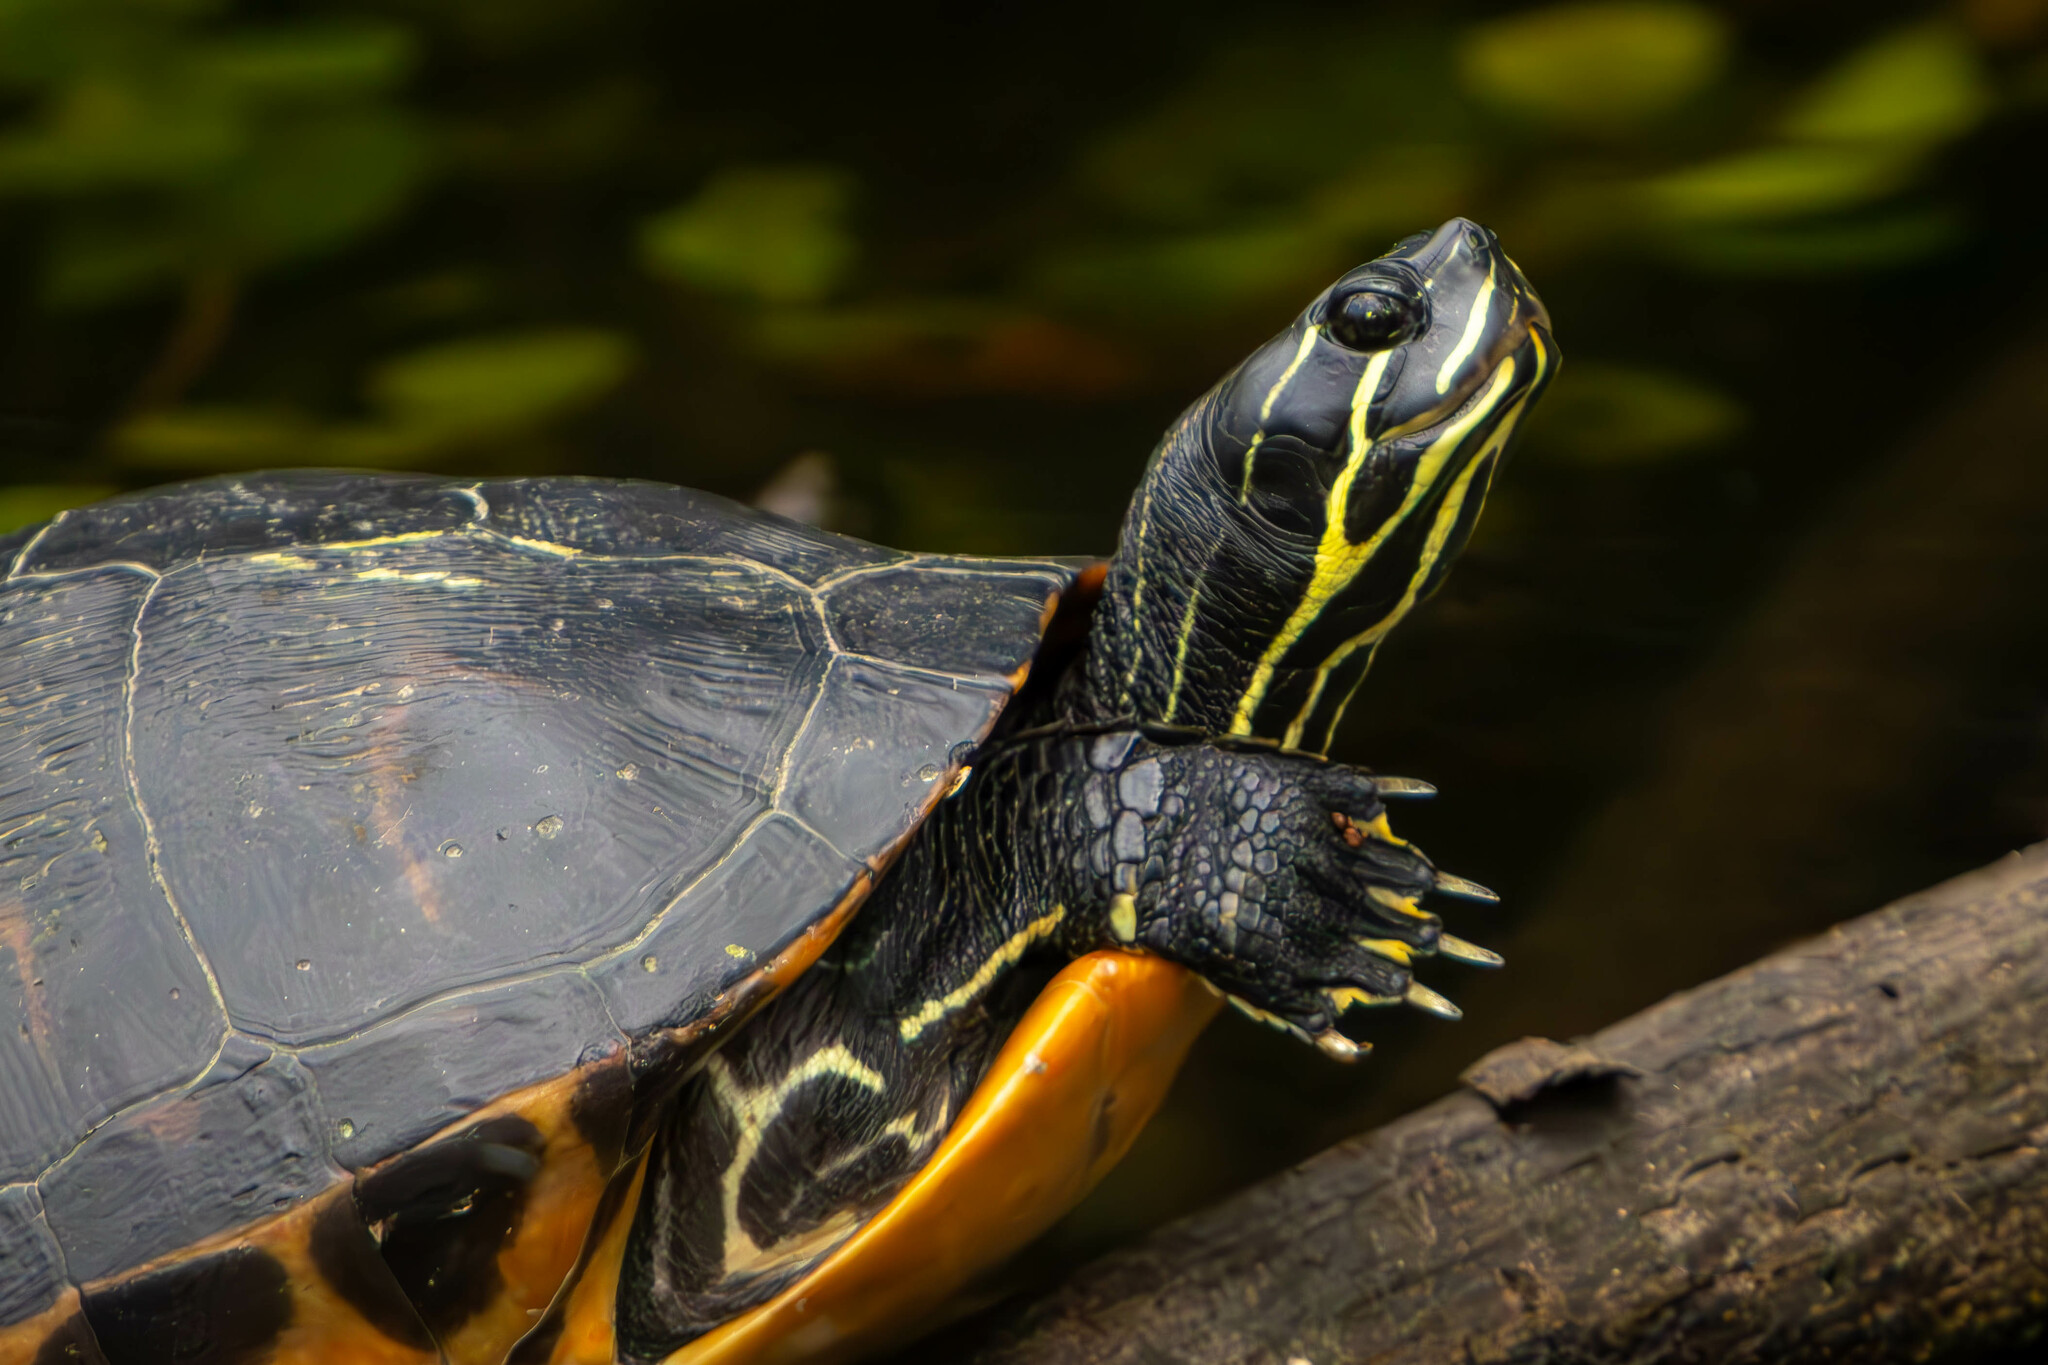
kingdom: Animalia
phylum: Chordata
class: Testudines
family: Emydidae
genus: Pseudemys
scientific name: Pseudemys nelsoni
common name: Florida red-bellied turtle
